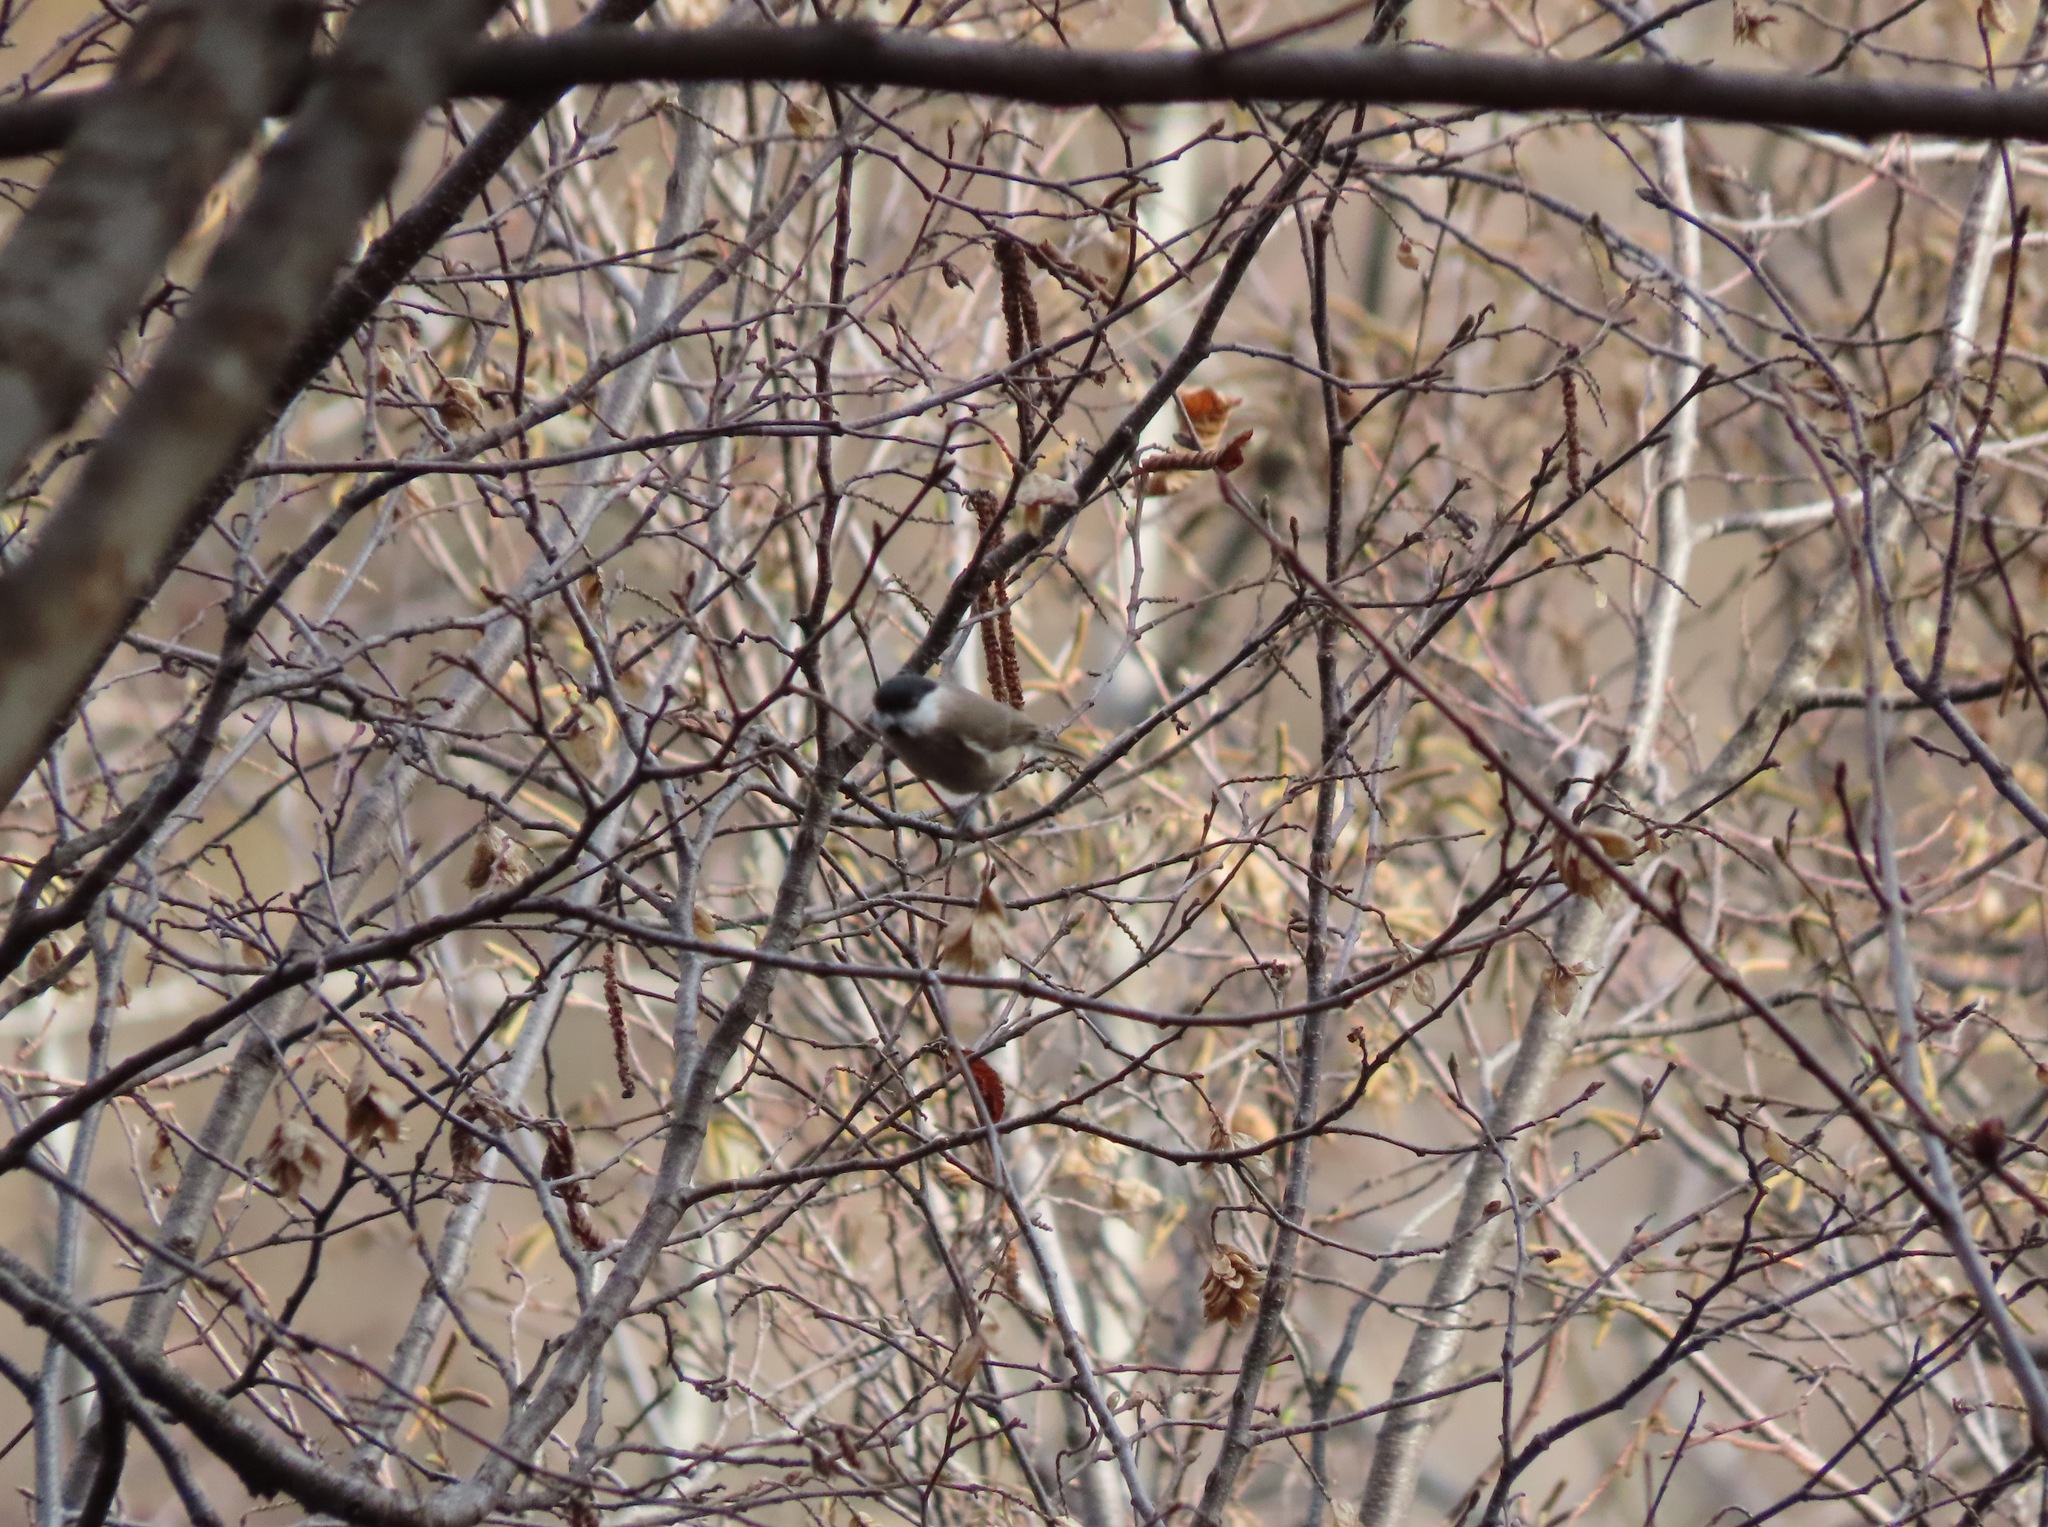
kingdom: Animalia
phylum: Chordata
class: Aves
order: Passeriformes
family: Paridae
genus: Poecile
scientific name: Poecile palustris
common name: Marsh tit
